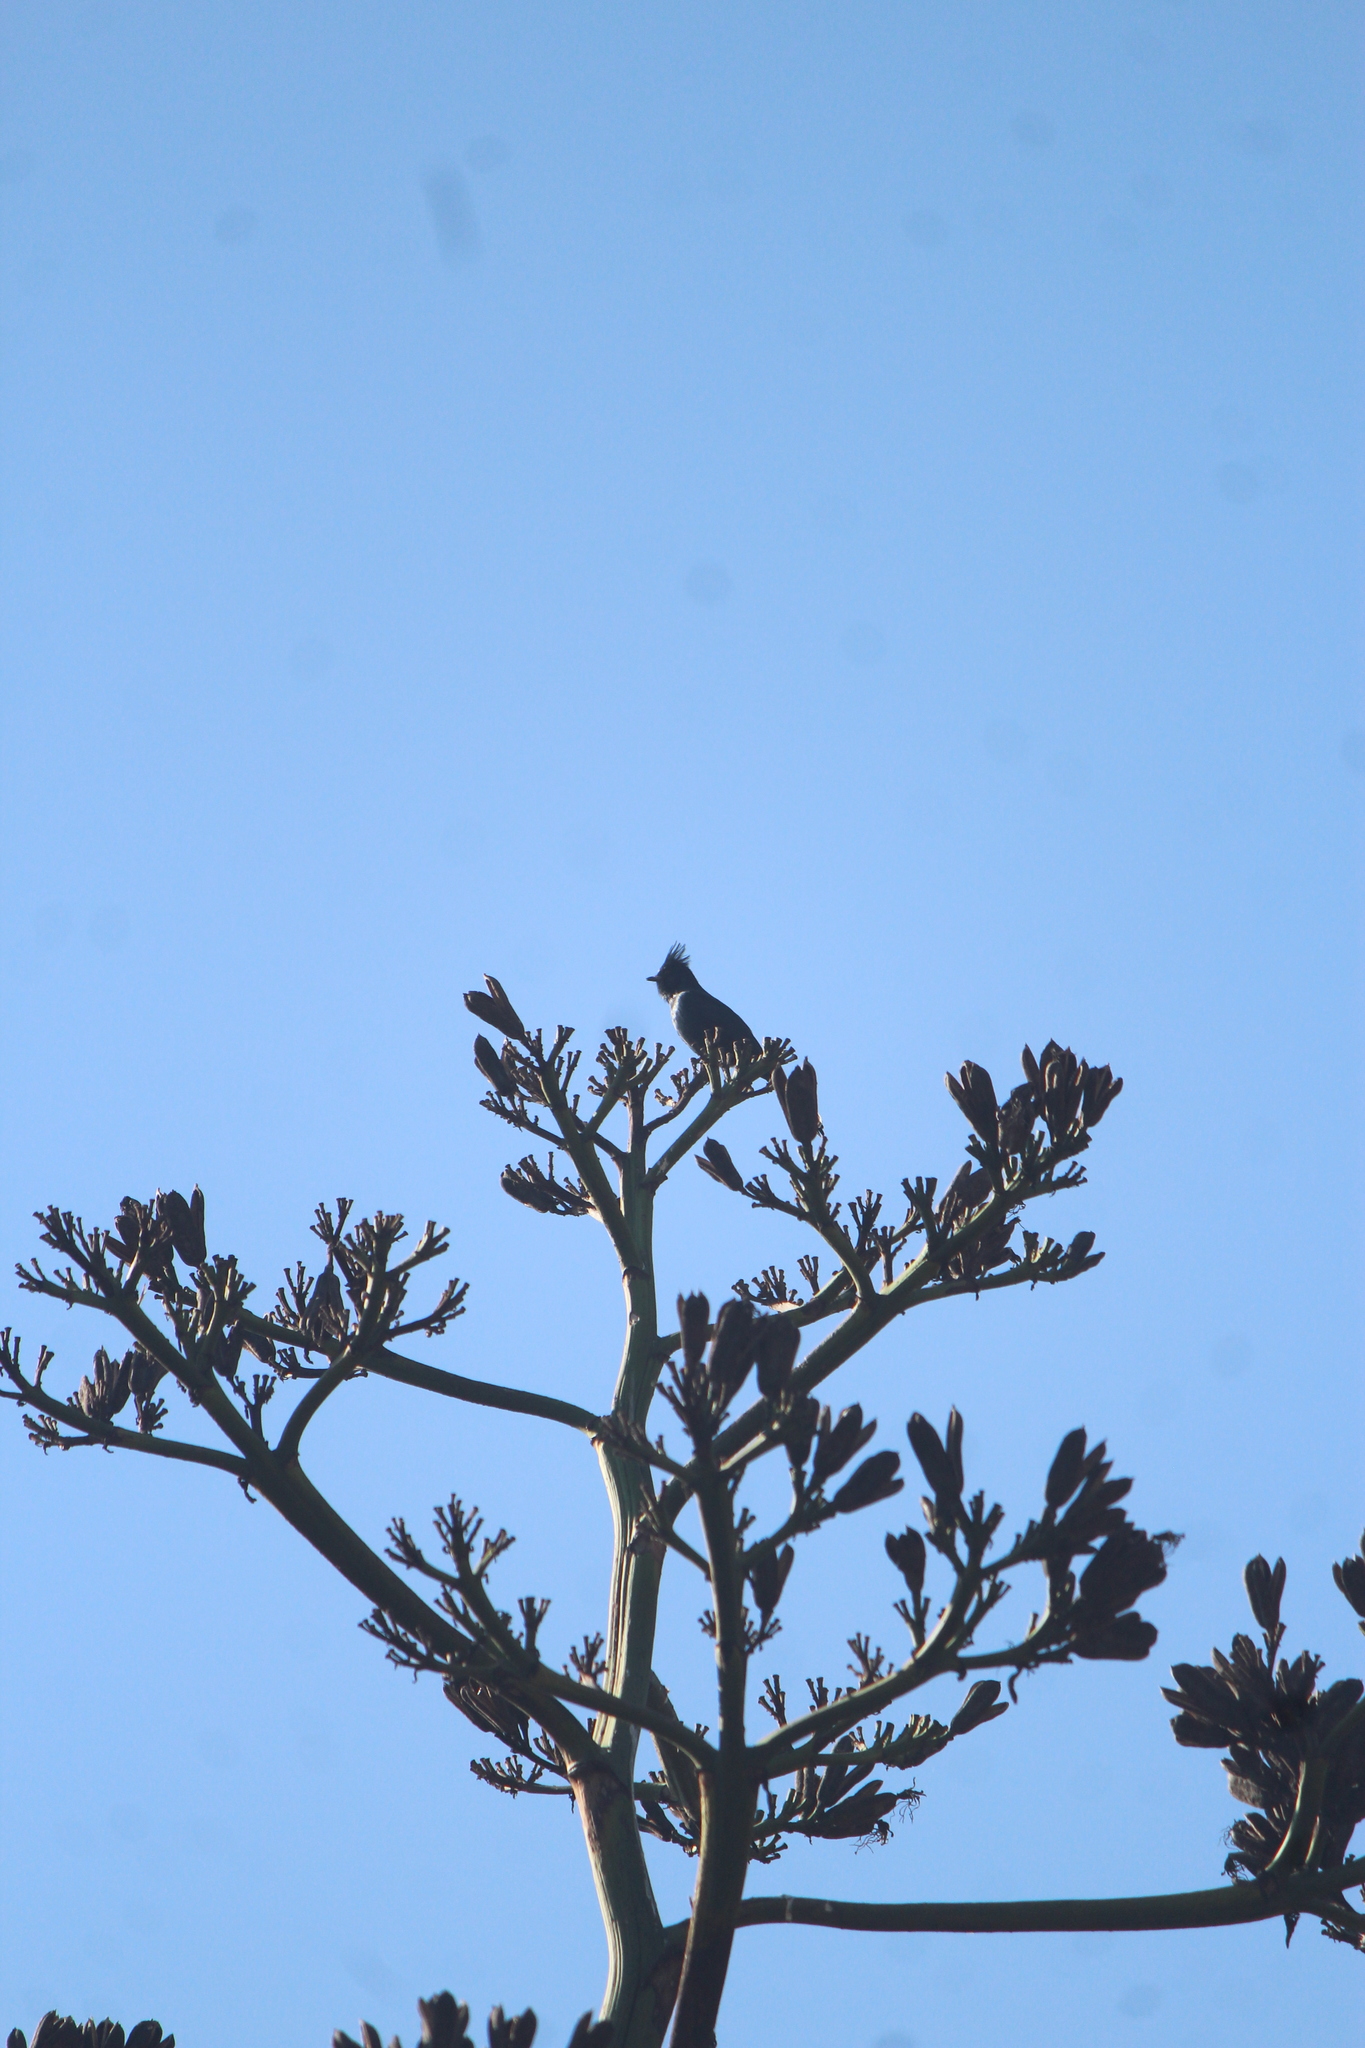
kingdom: Animalia
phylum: Chordata
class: Aves
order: Passeriformes
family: Ptilogonatidae
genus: Phainopepla
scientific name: Phainopepla nitens
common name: Phainopepla
